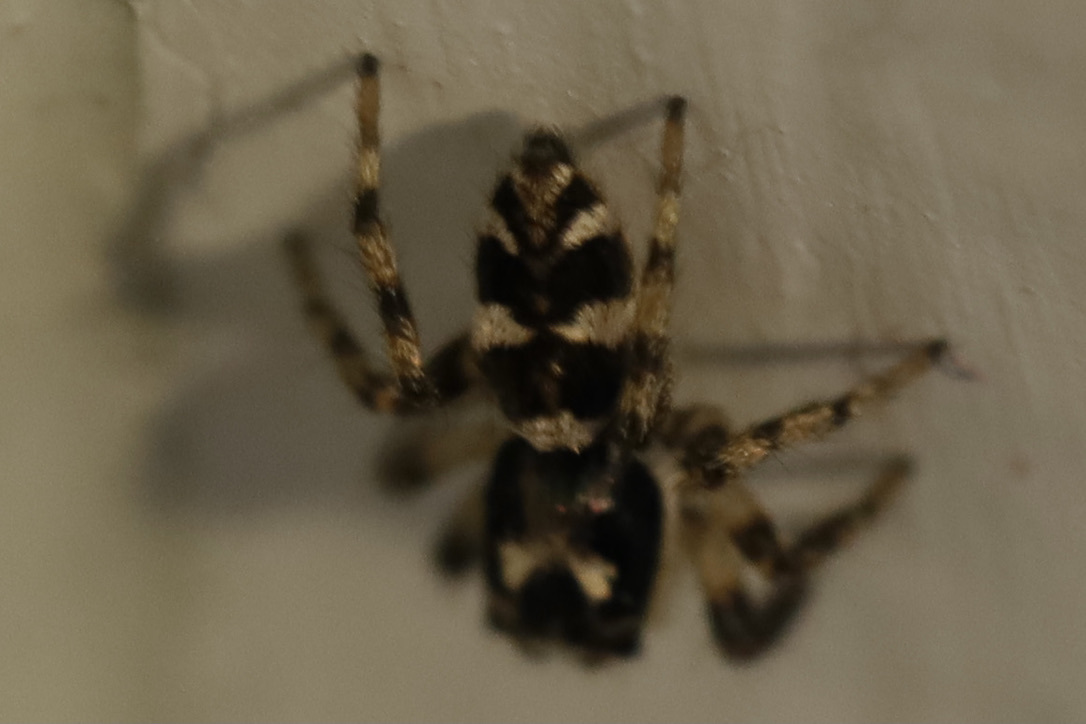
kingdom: Animalia
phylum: Arthropoda
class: Arachnida
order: Araneae
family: Salticidae
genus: Salticus
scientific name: Salticus scenicus
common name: Zebra jumper
